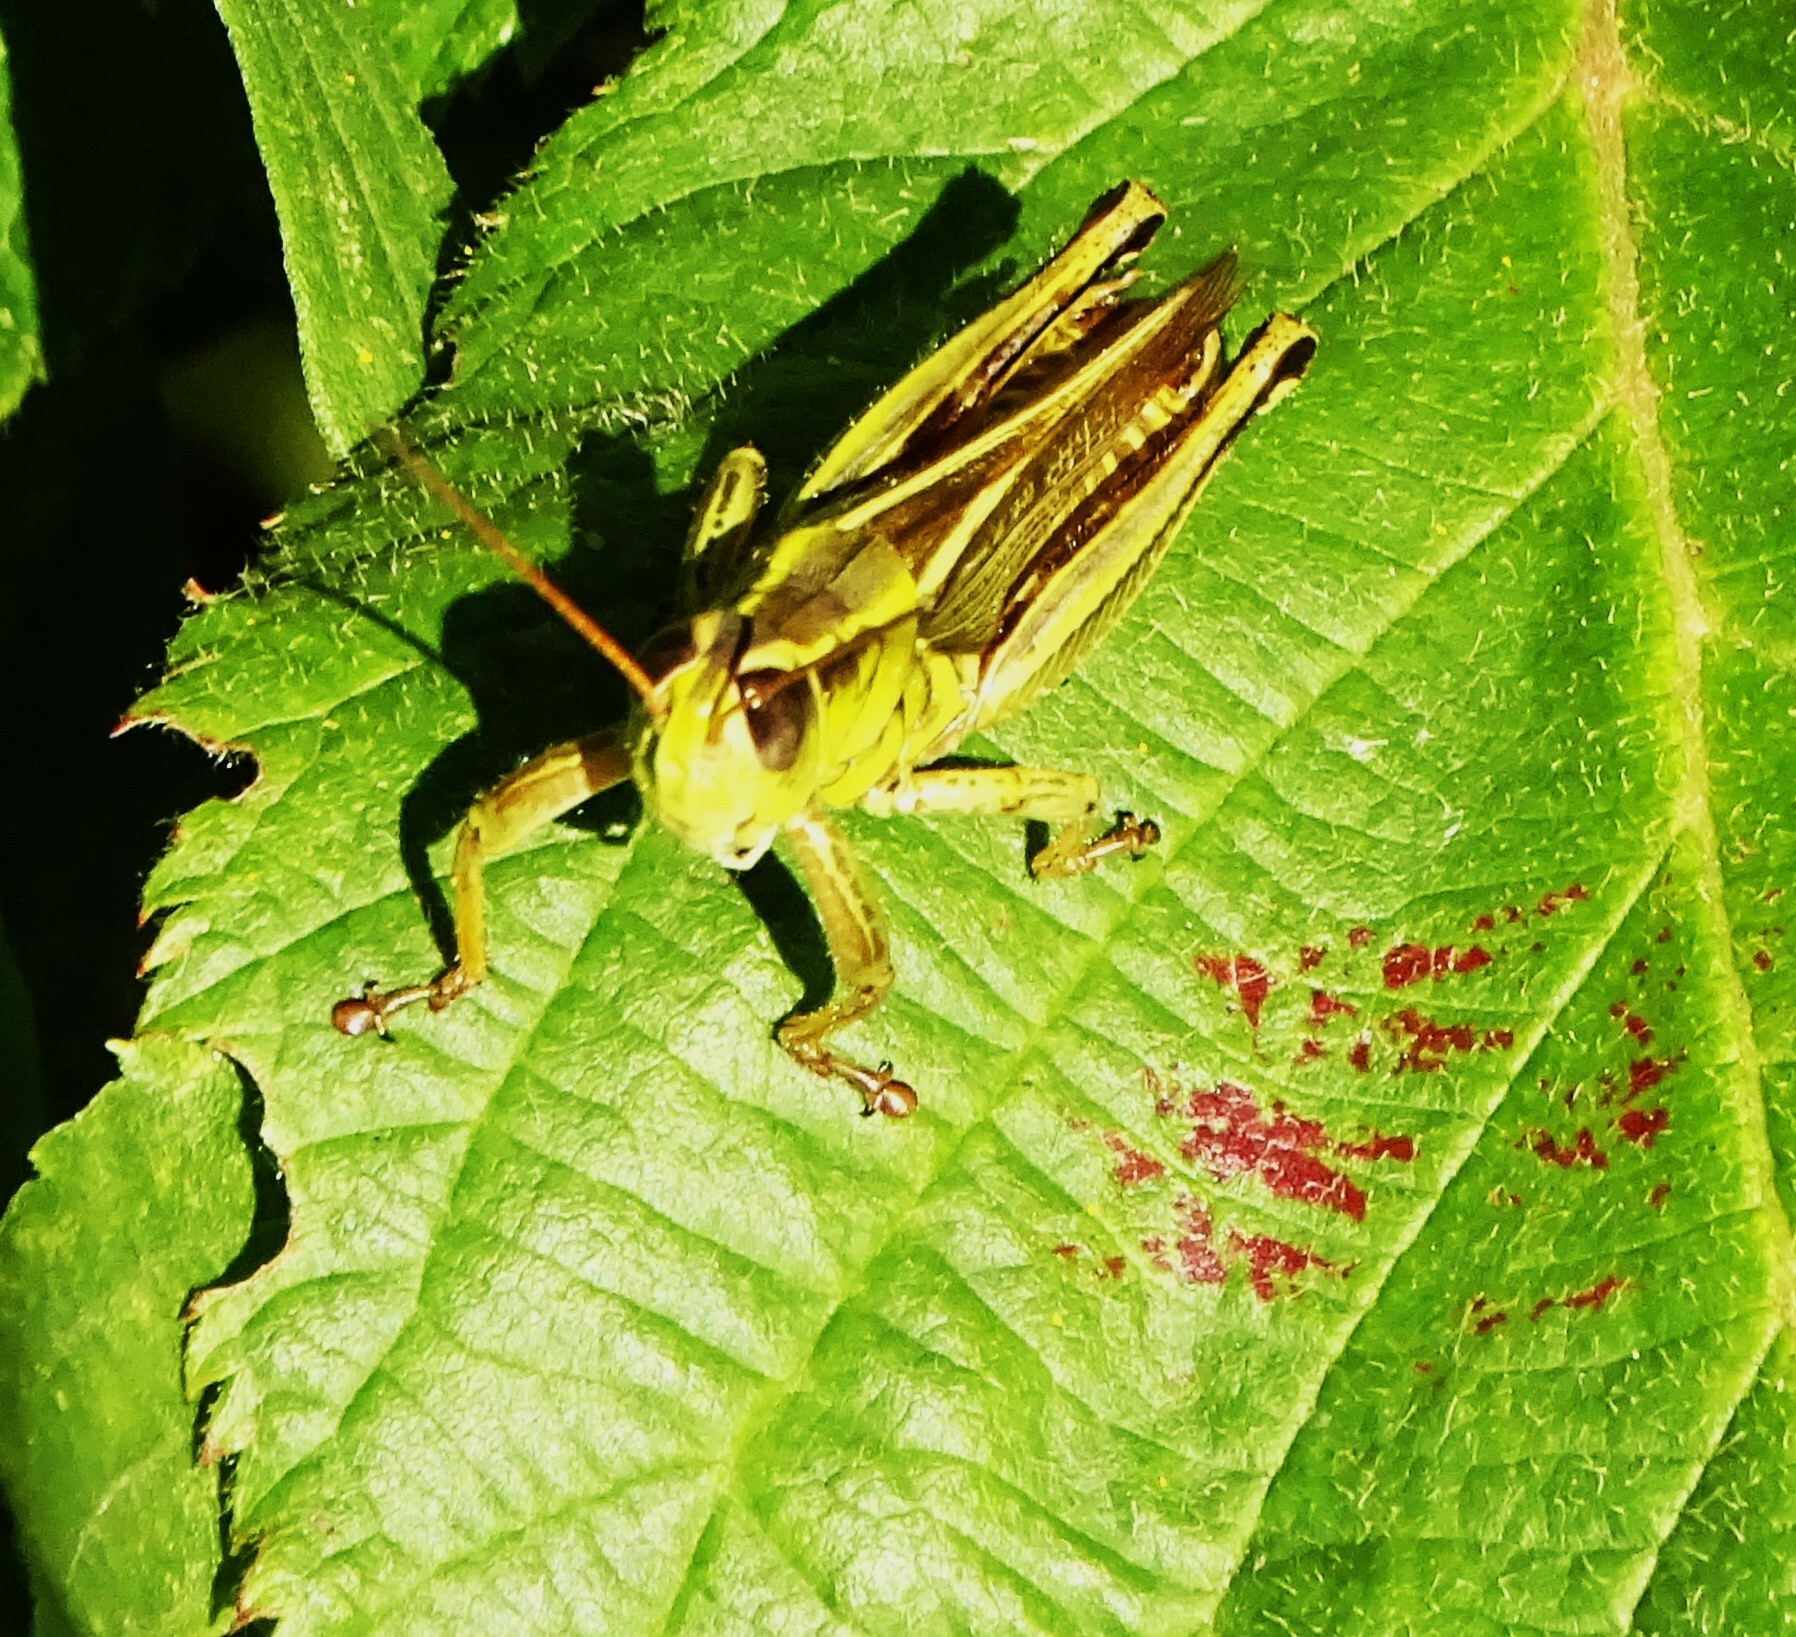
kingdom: Animalia
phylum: Arthropoda
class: Insecta
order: Orthoptera
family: Acrididae
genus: Melanoplus
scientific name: Melanoplus bivittatus
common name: Two-striped grasshopper
